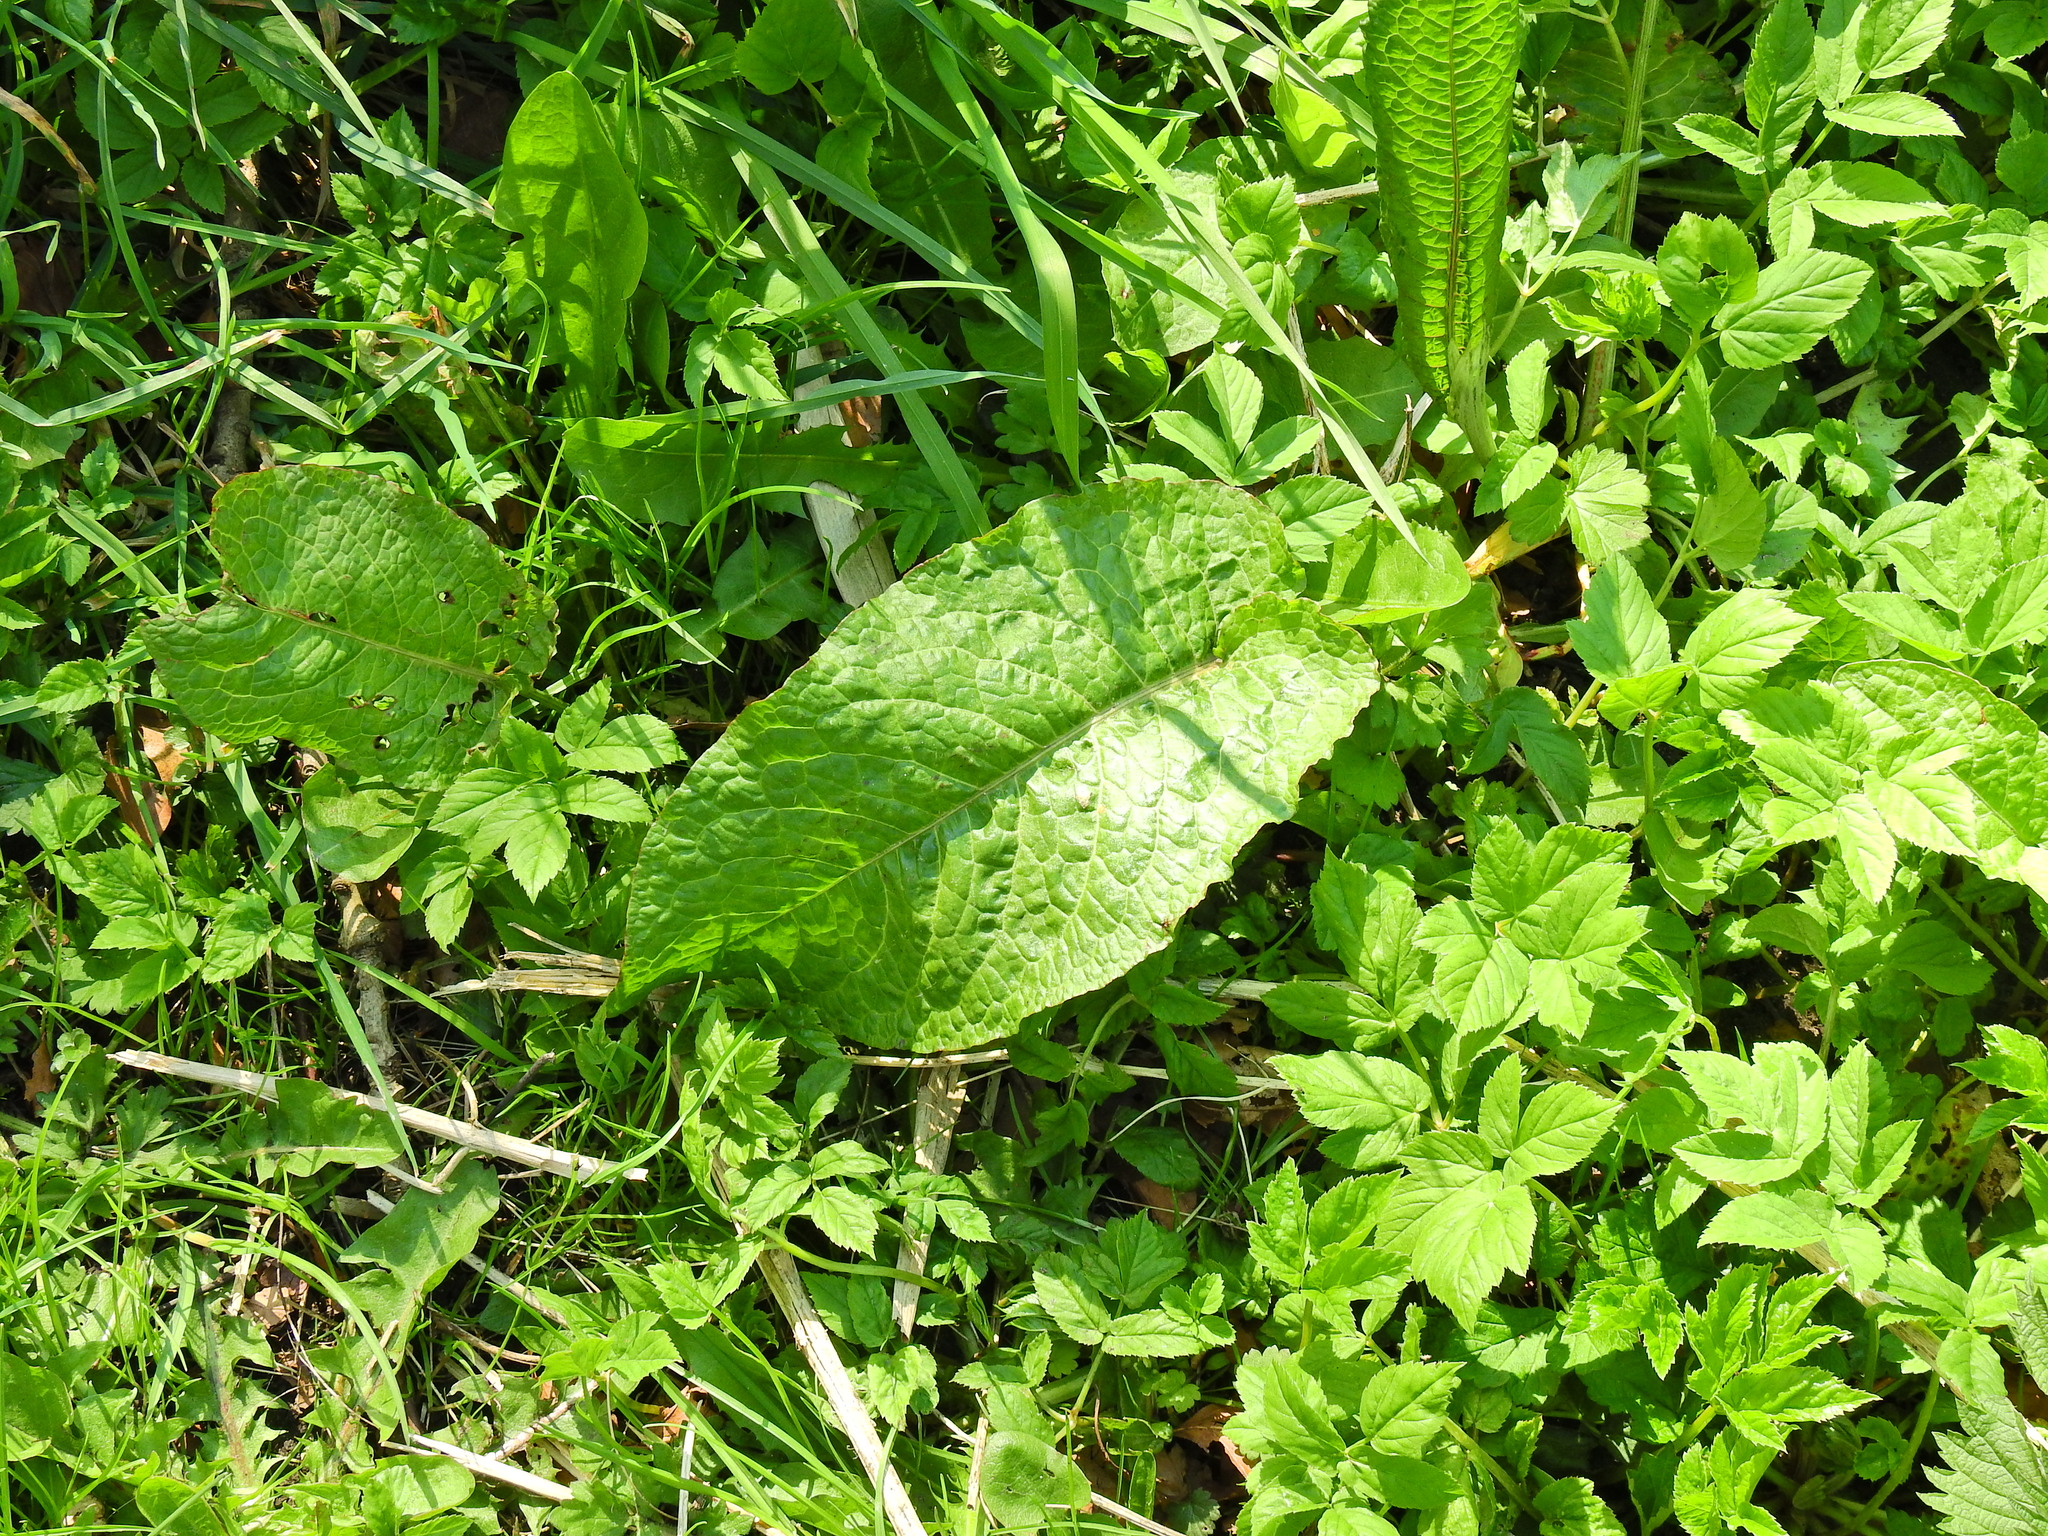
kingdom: Plantae
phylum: Tracheophyta
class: Magnoliopsida
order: Caryophyllales
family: Polygonaceae
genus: Rumex
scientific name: Rumex obtusifolius
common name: Bitter dock
